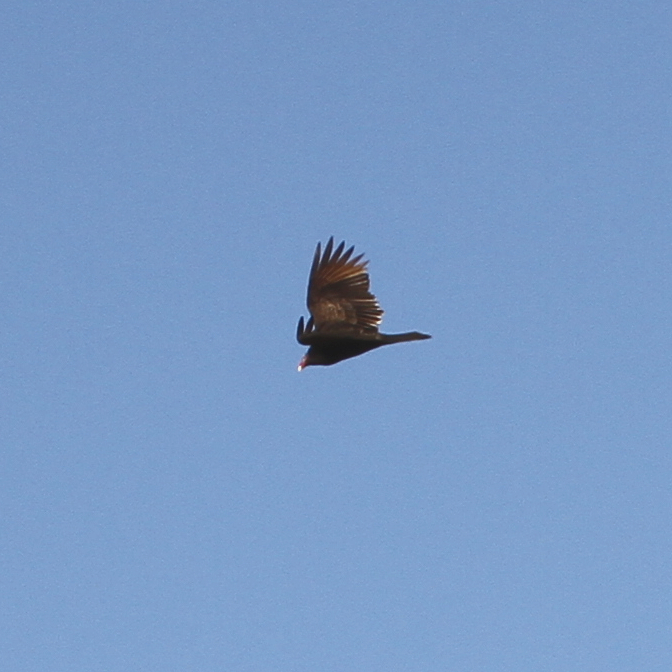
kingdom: Animalia
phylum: Chordata
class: Aves
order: Accipitriformes
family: Cathartidae
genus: Cathartes
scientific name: Cathartes aura
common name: Turkey vulture
